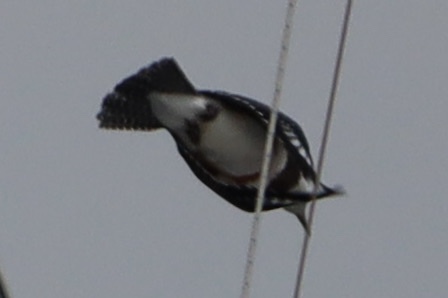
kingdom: Animalia
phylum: Chordata
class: Aves
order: Coraciiformes
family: Alcedinidae
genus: Megaceryle
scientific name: Megaceryle alcyon
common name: Belted kingfisher
